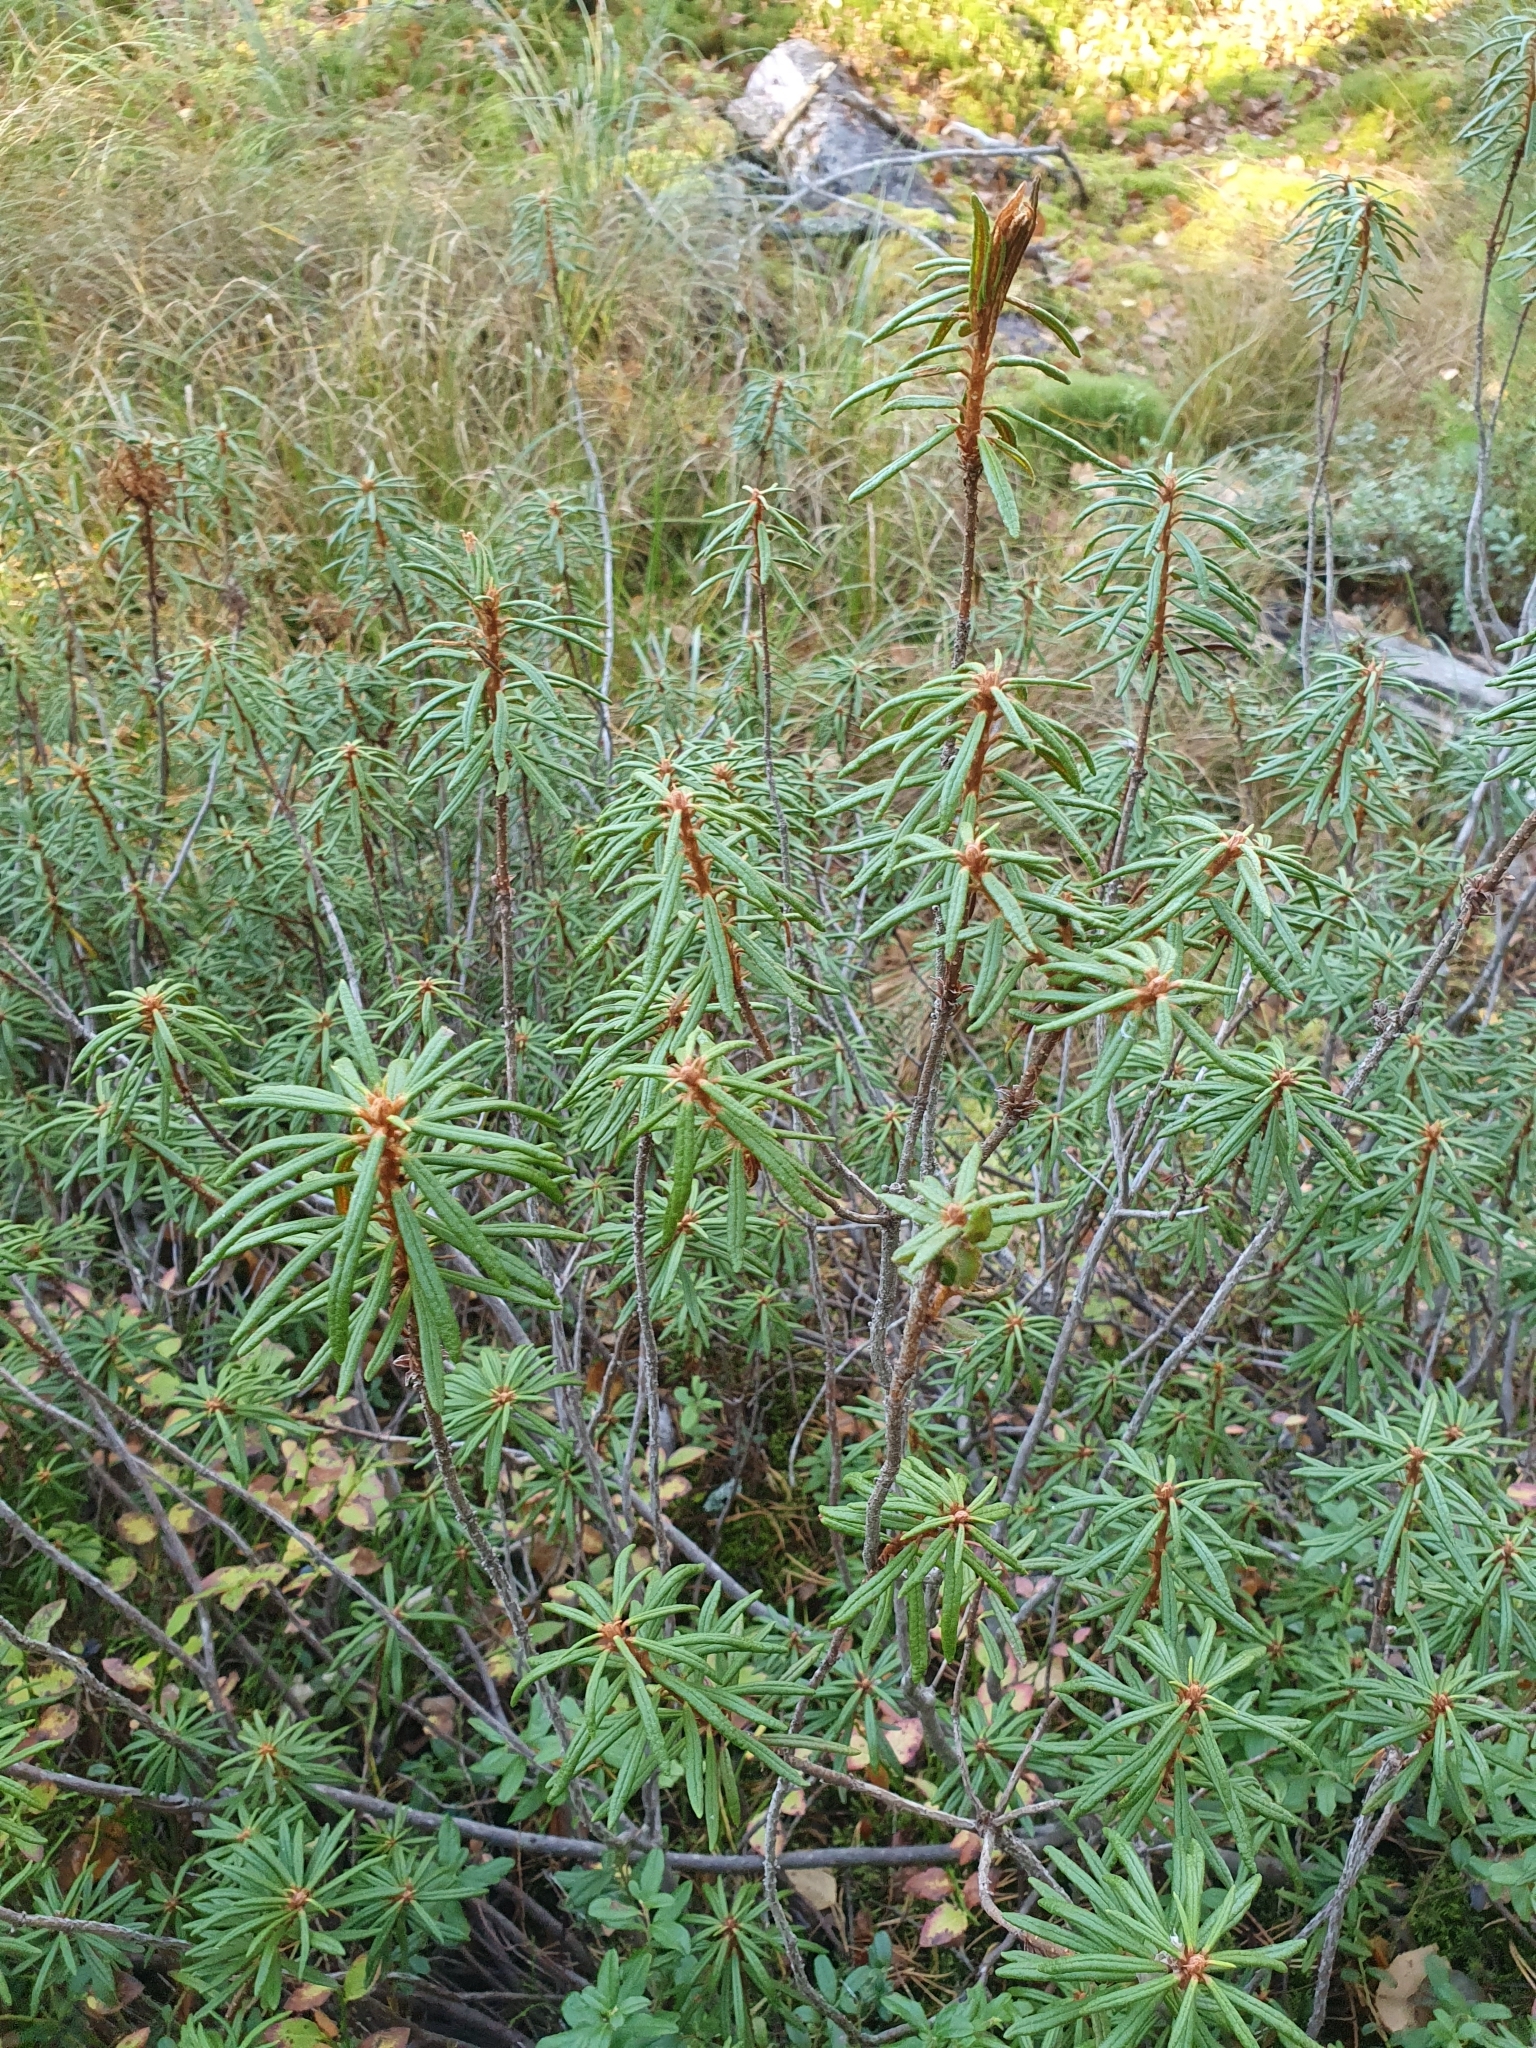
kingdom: Plantae
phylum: Tracheophyta
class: Magnoliopsida
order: Ericales
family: Ericaceae
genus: Rhododendron
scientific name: Rhododendron tomentosum
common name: Marsh labrador tea
